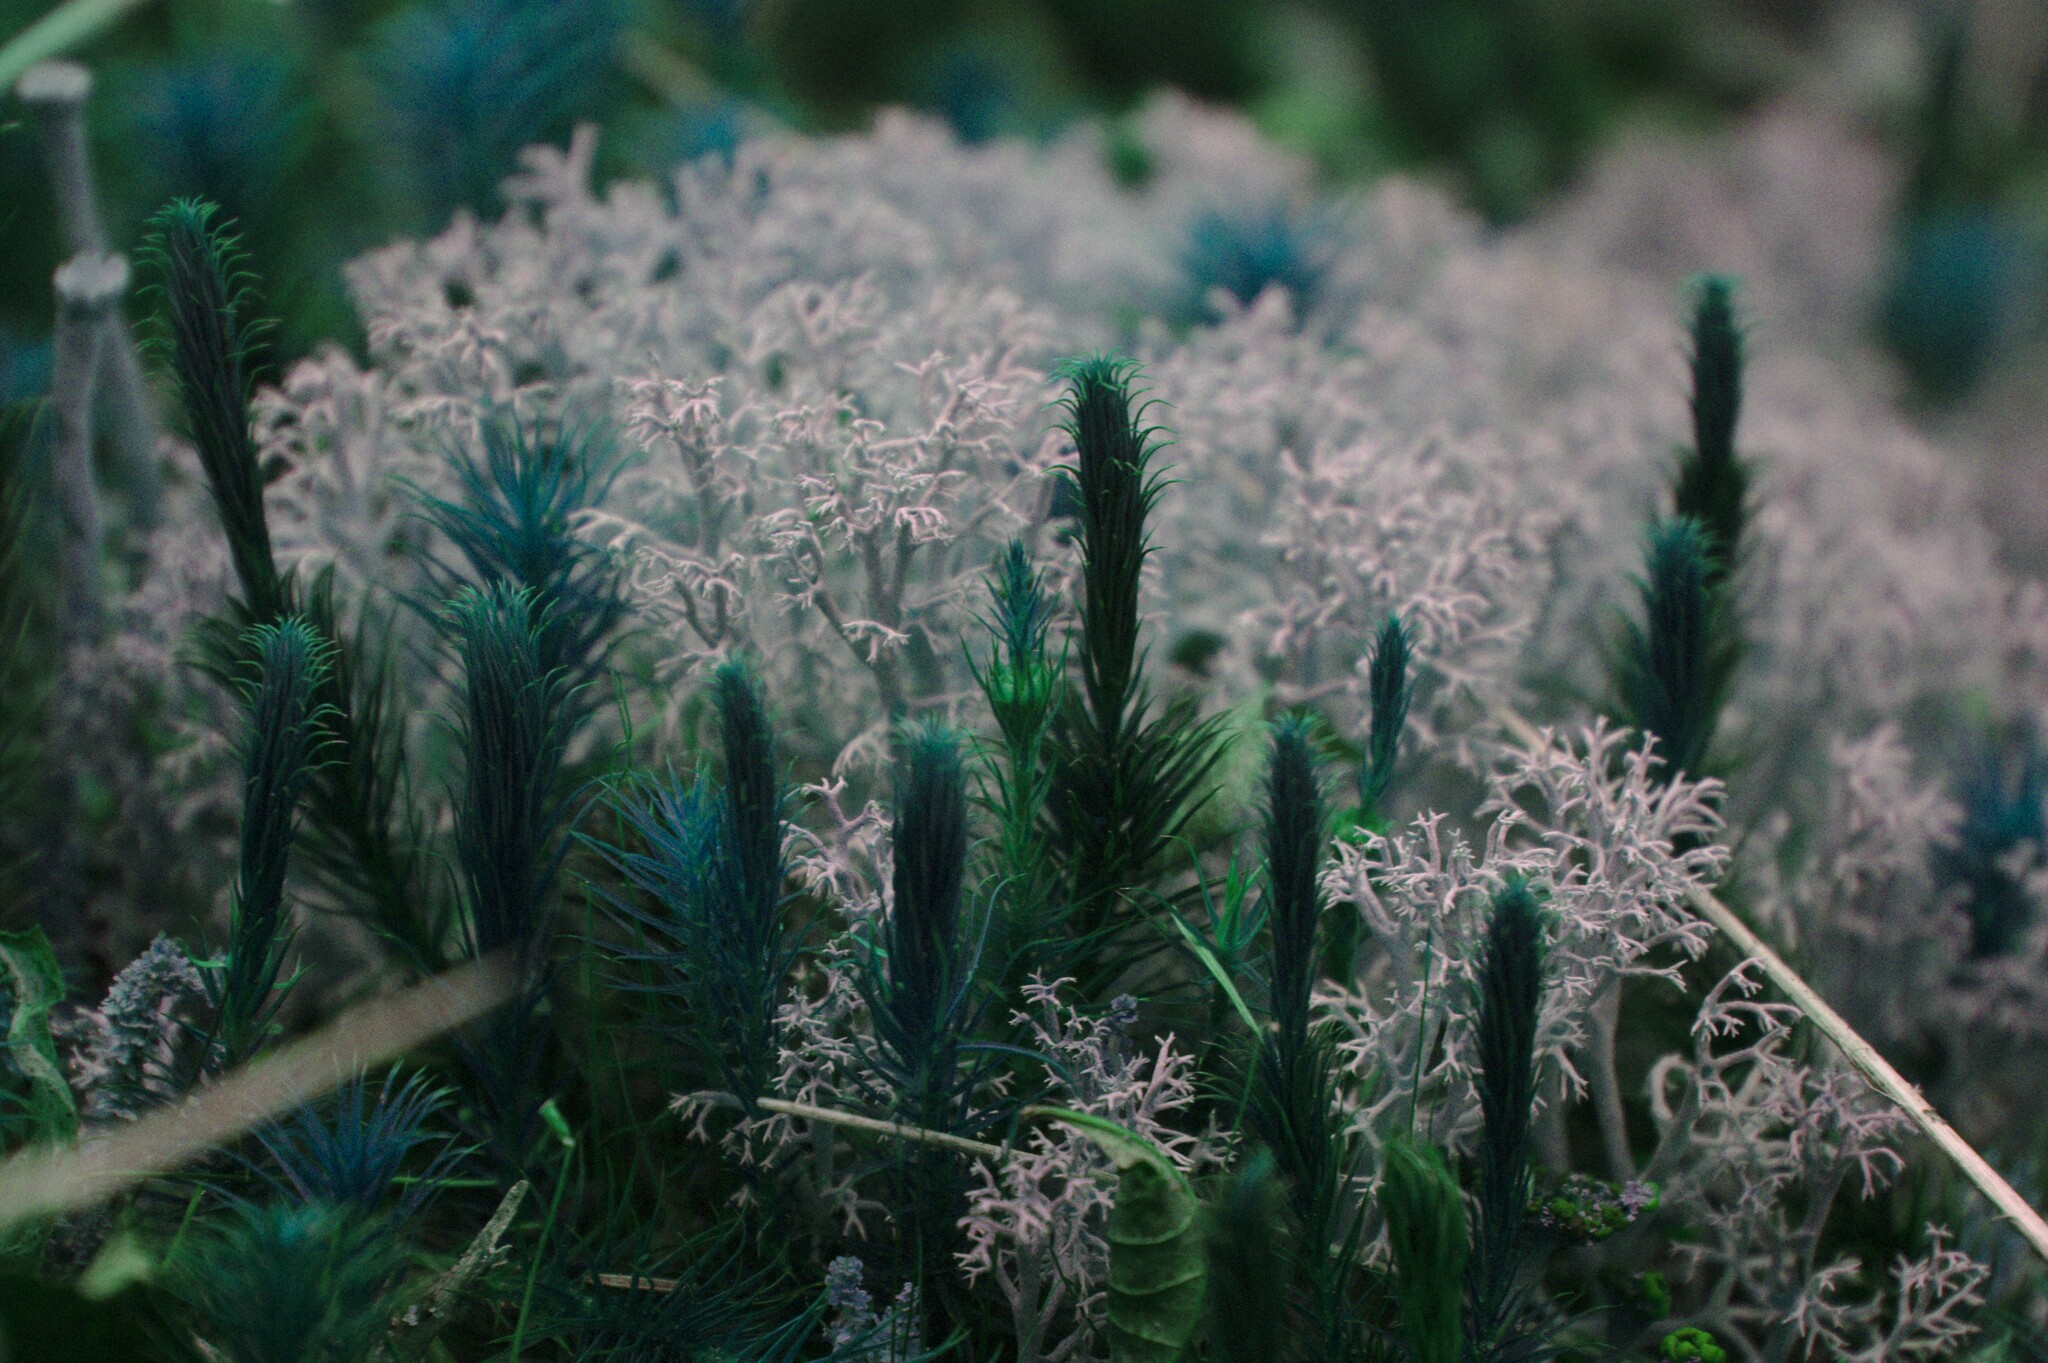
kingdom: Fungi
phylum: Ascomycota
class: Lecanoromycetes
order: Lecanorales
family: Cladoniaceae
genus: Cladonia
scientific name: Cladonia rangiferina
